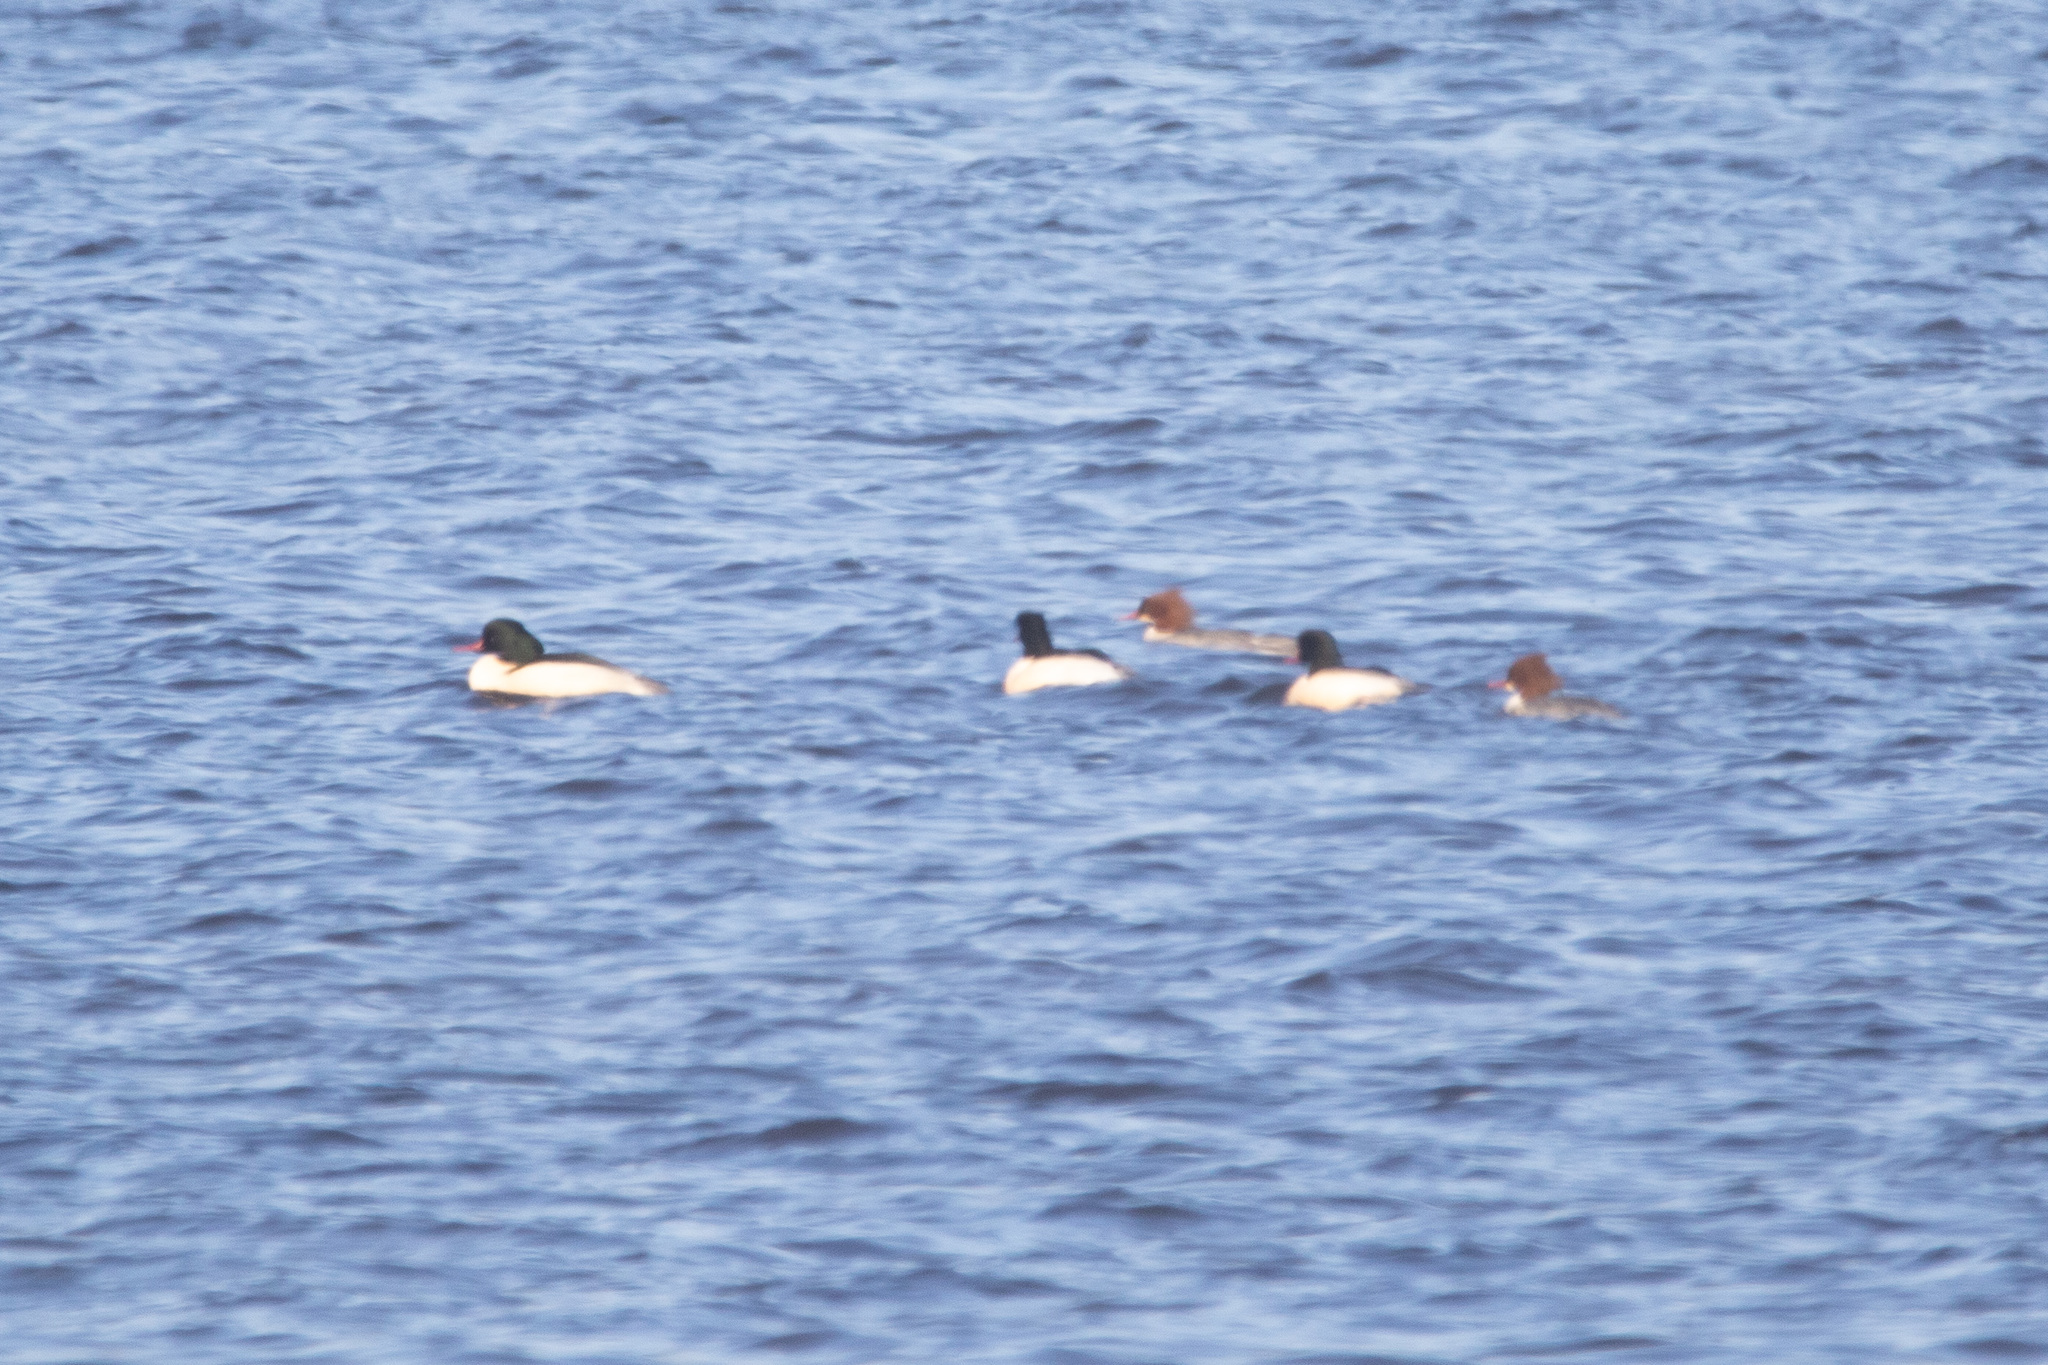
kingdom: Animalia
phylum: Chordata
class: Aves
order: Anseriformes
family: Anatidae
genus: Mergus
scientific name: Mergus merganser
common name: Common merganser
